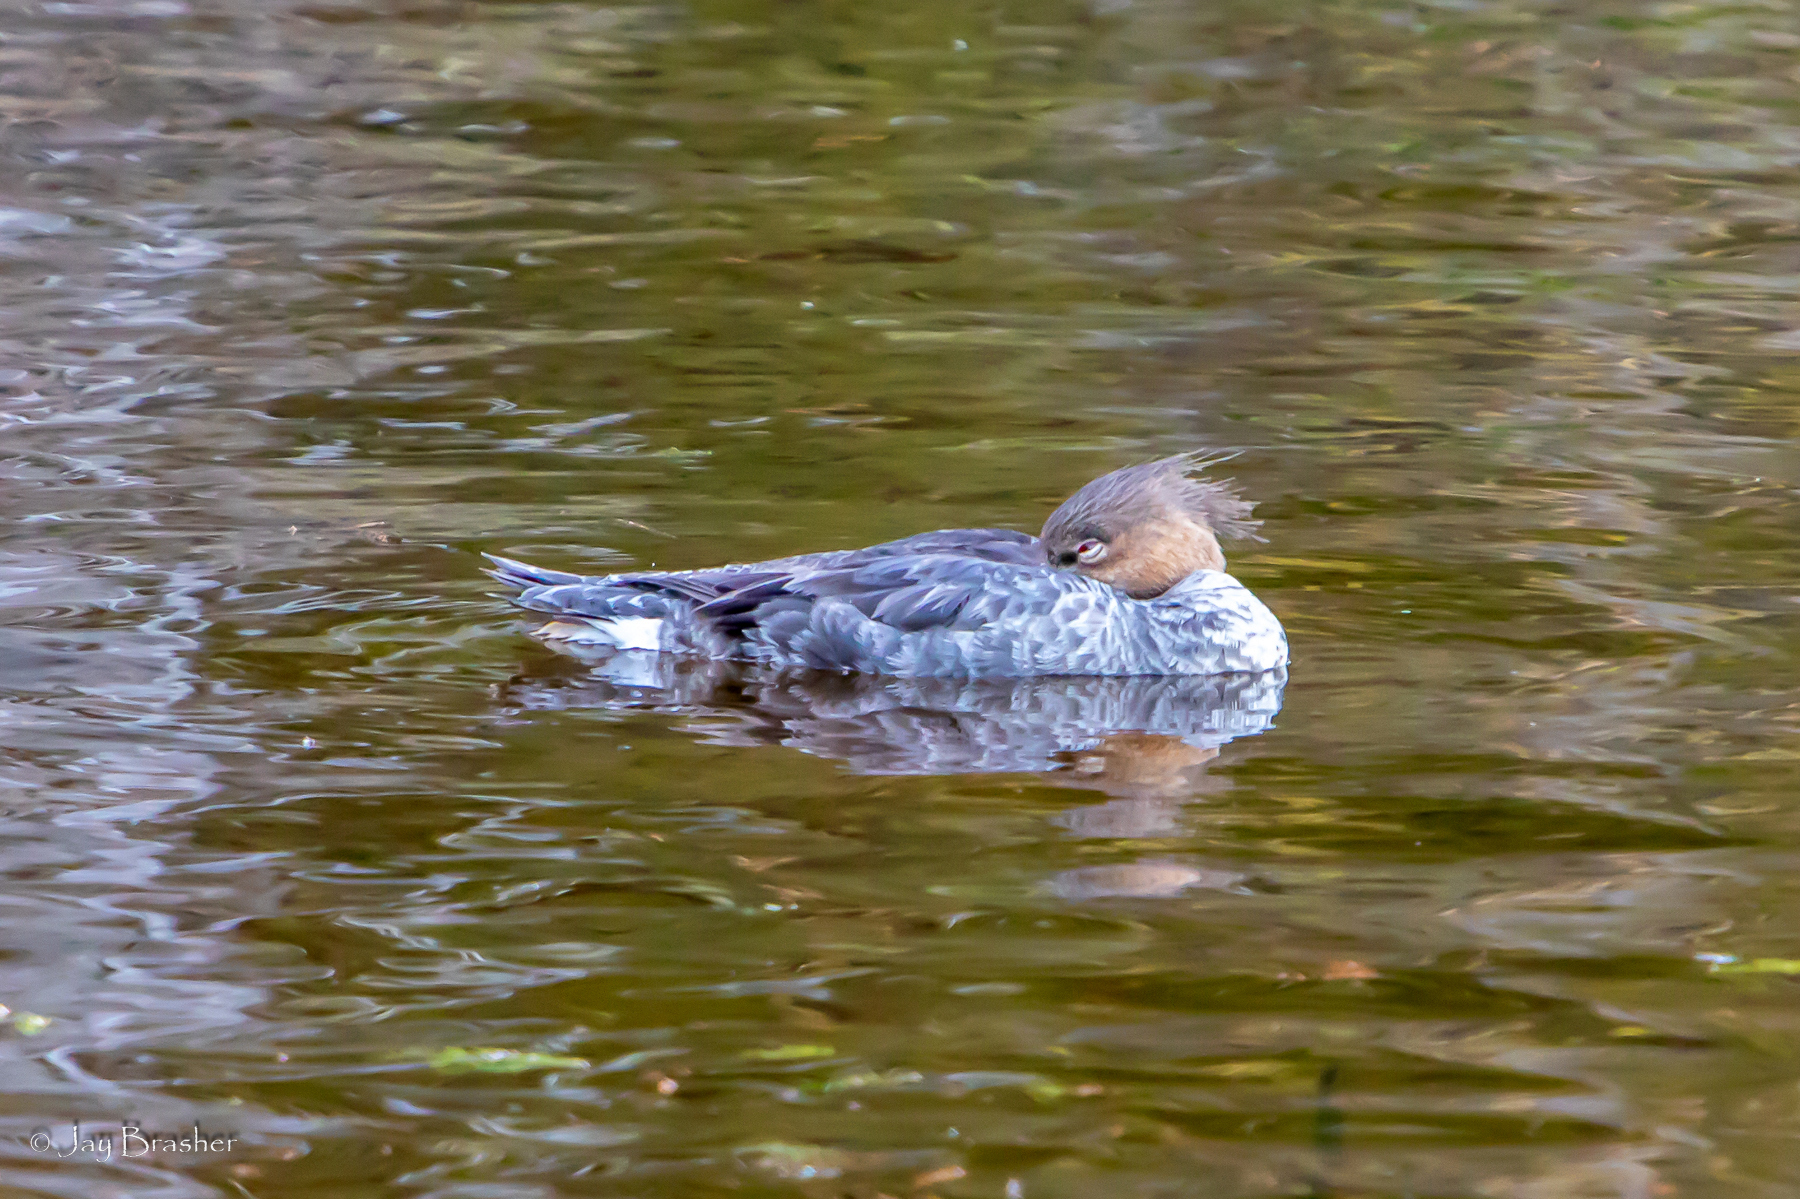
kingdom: Animalia
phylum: Chordata
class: Aves
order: Anseriformes
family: Anatidae
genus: Mergus
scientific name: Mergus serrator
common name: Red-breasted merganser
